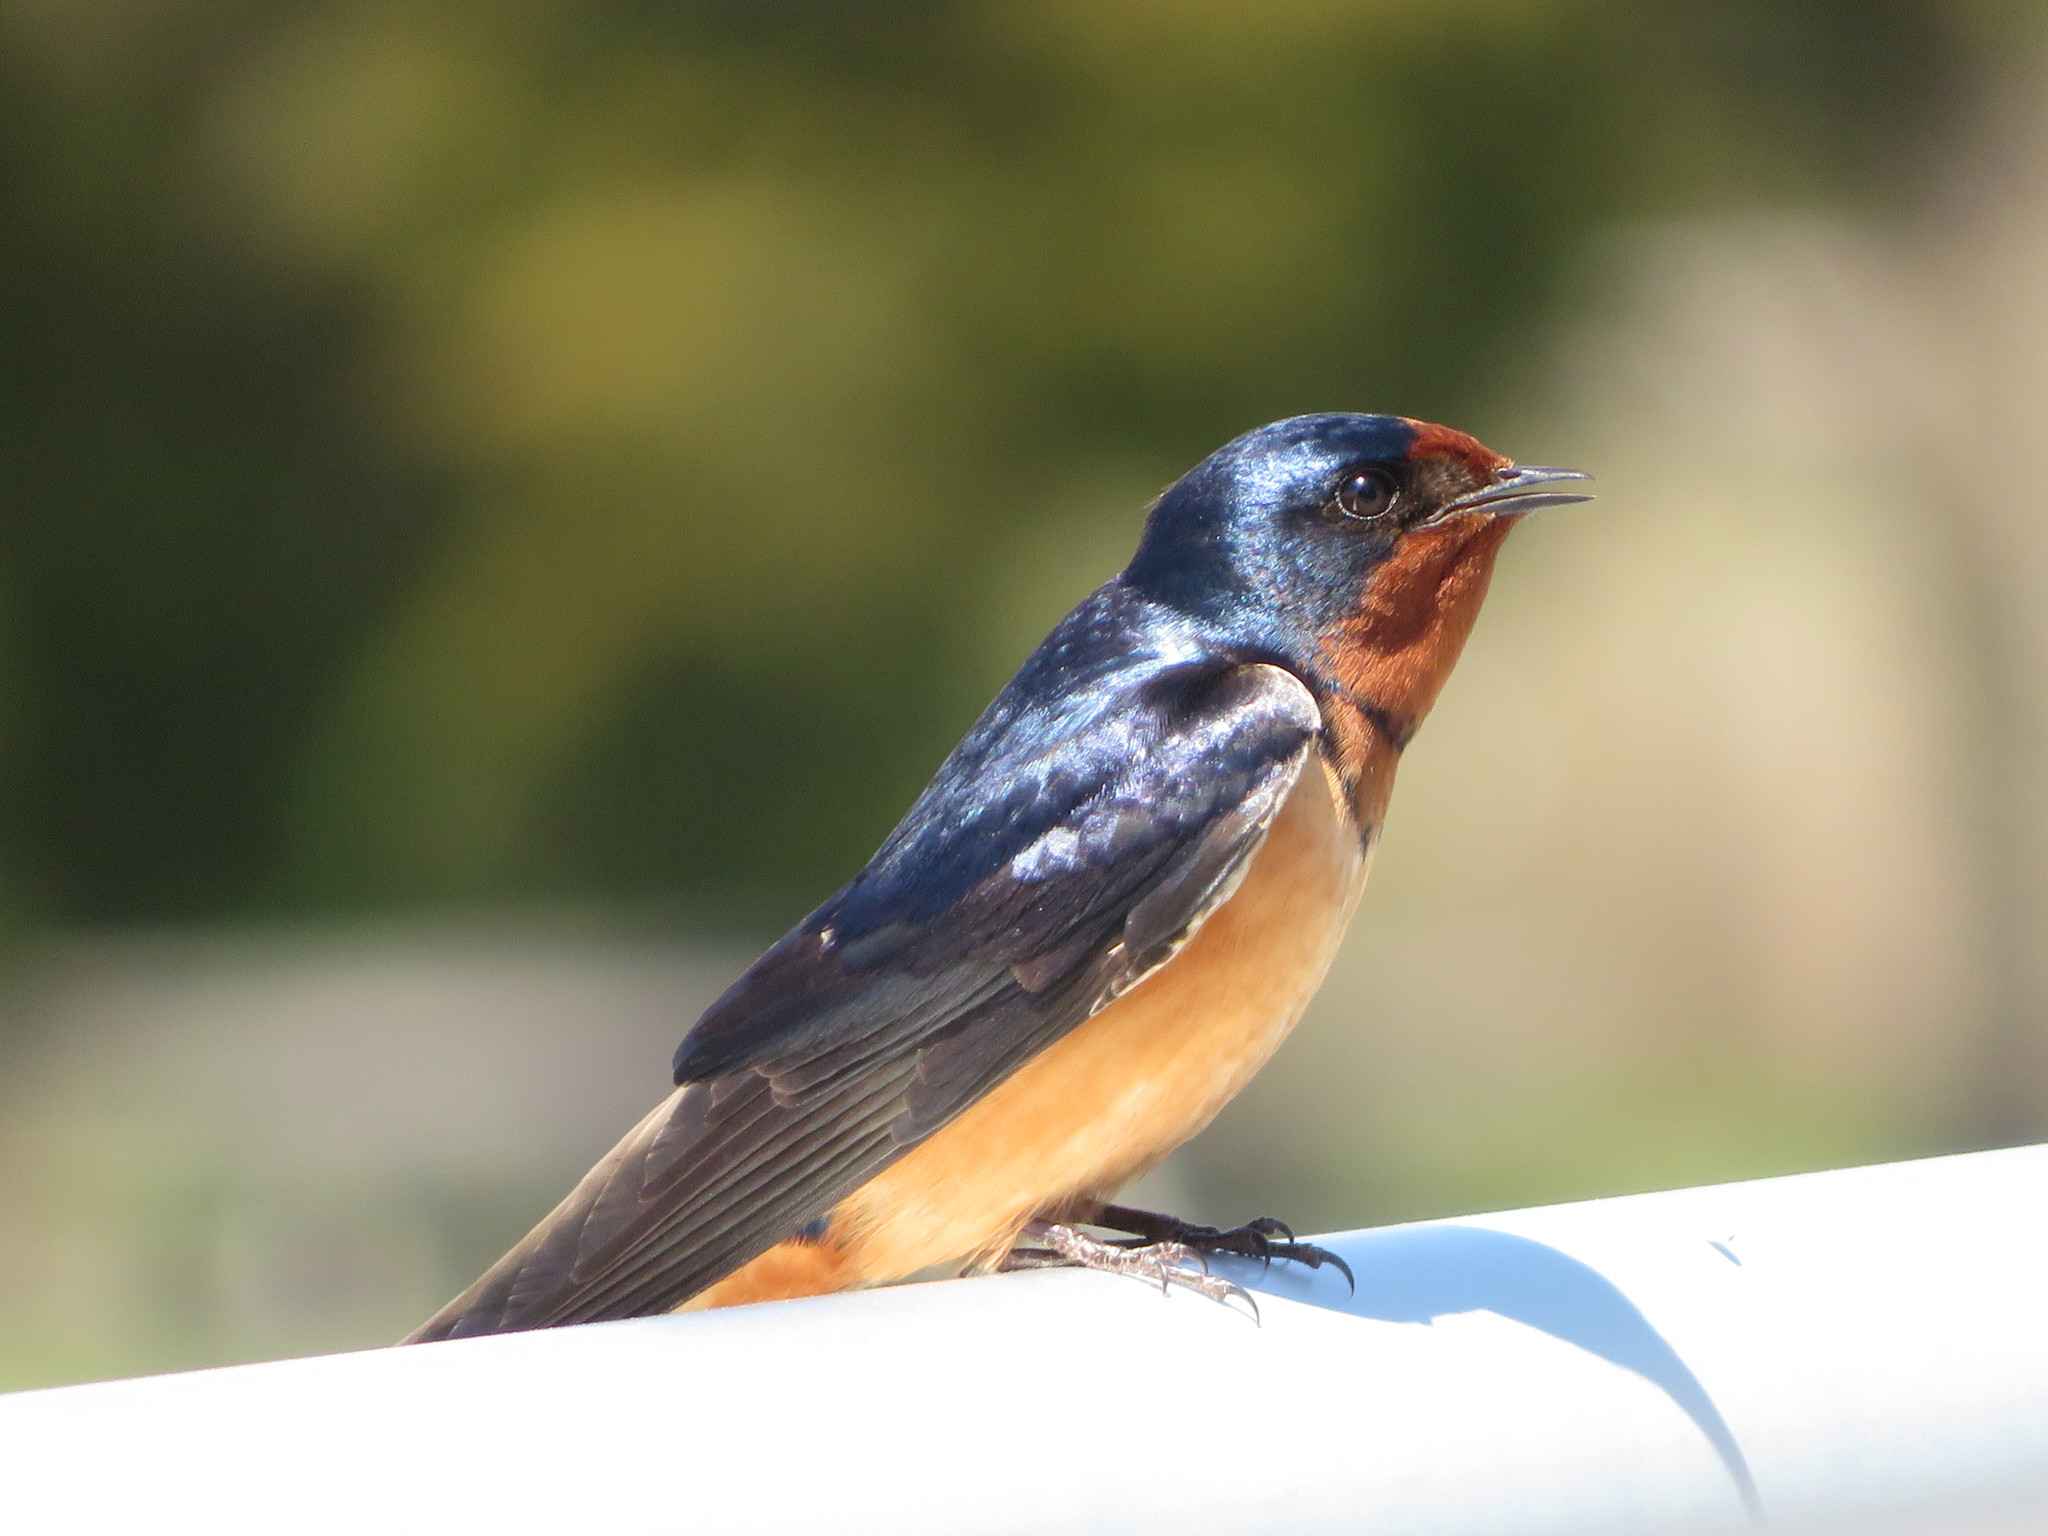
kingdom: Animalia
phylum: Chordata
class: Aves
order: Passeriformes
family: Hirundinidae
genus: Hirundo
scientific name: Hirundo rustica
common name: Barn swallow
